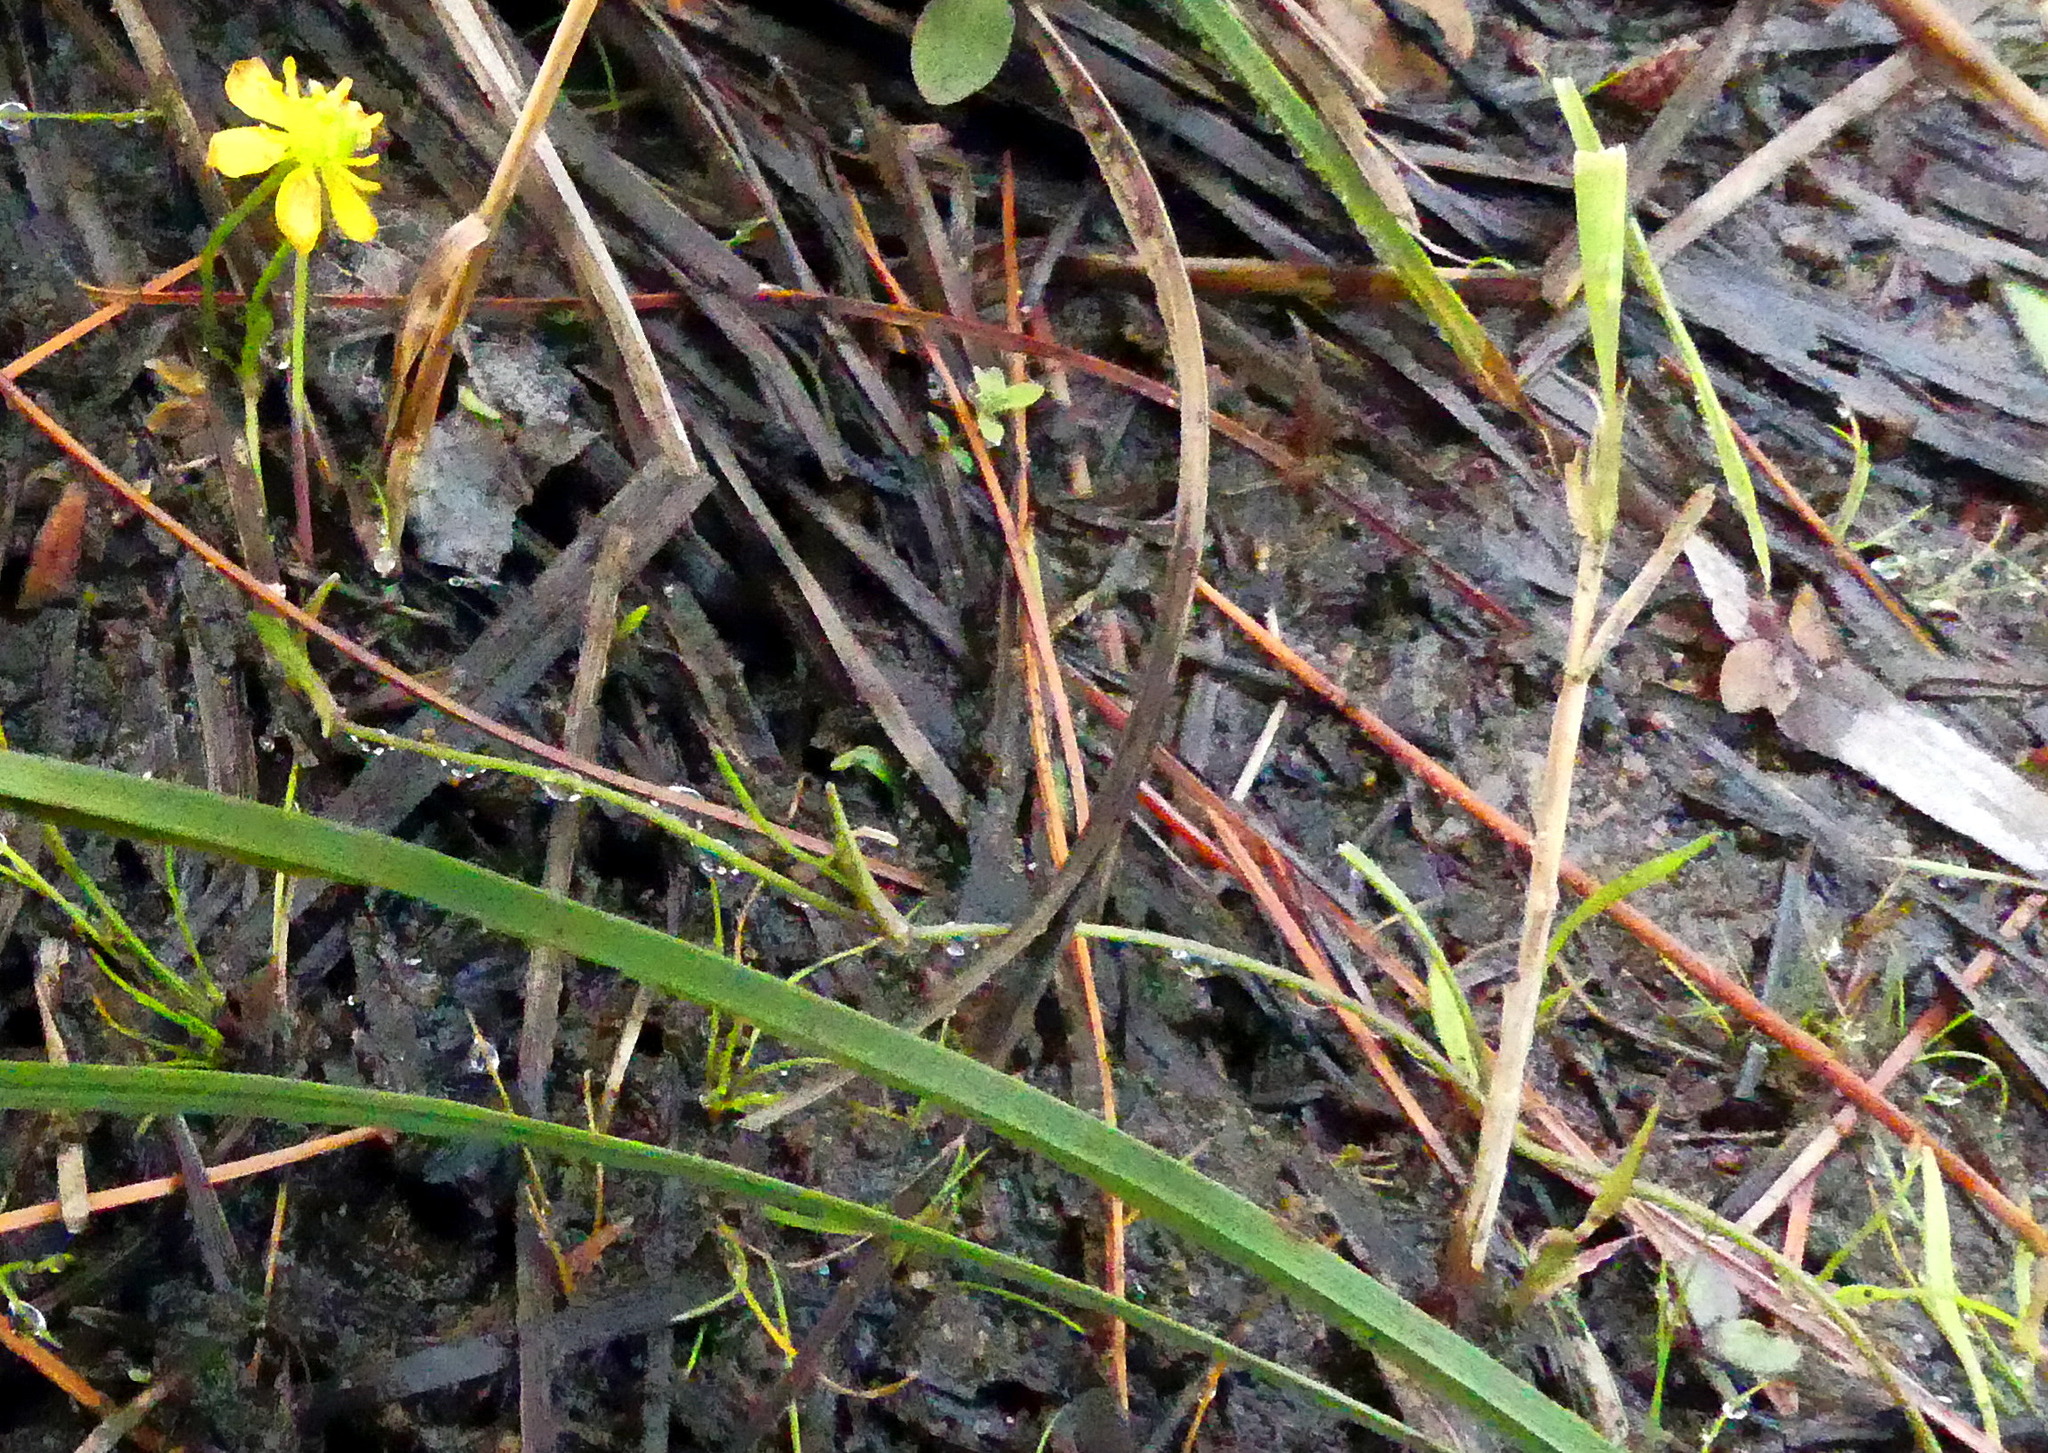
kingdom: Plantae
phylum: Tracheophyta
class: Magnoliopsida
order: Ranunculales
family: Ranunculaceae
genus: Ranunculus
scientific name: Ranunculus reptans
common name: Creeping spearwort
